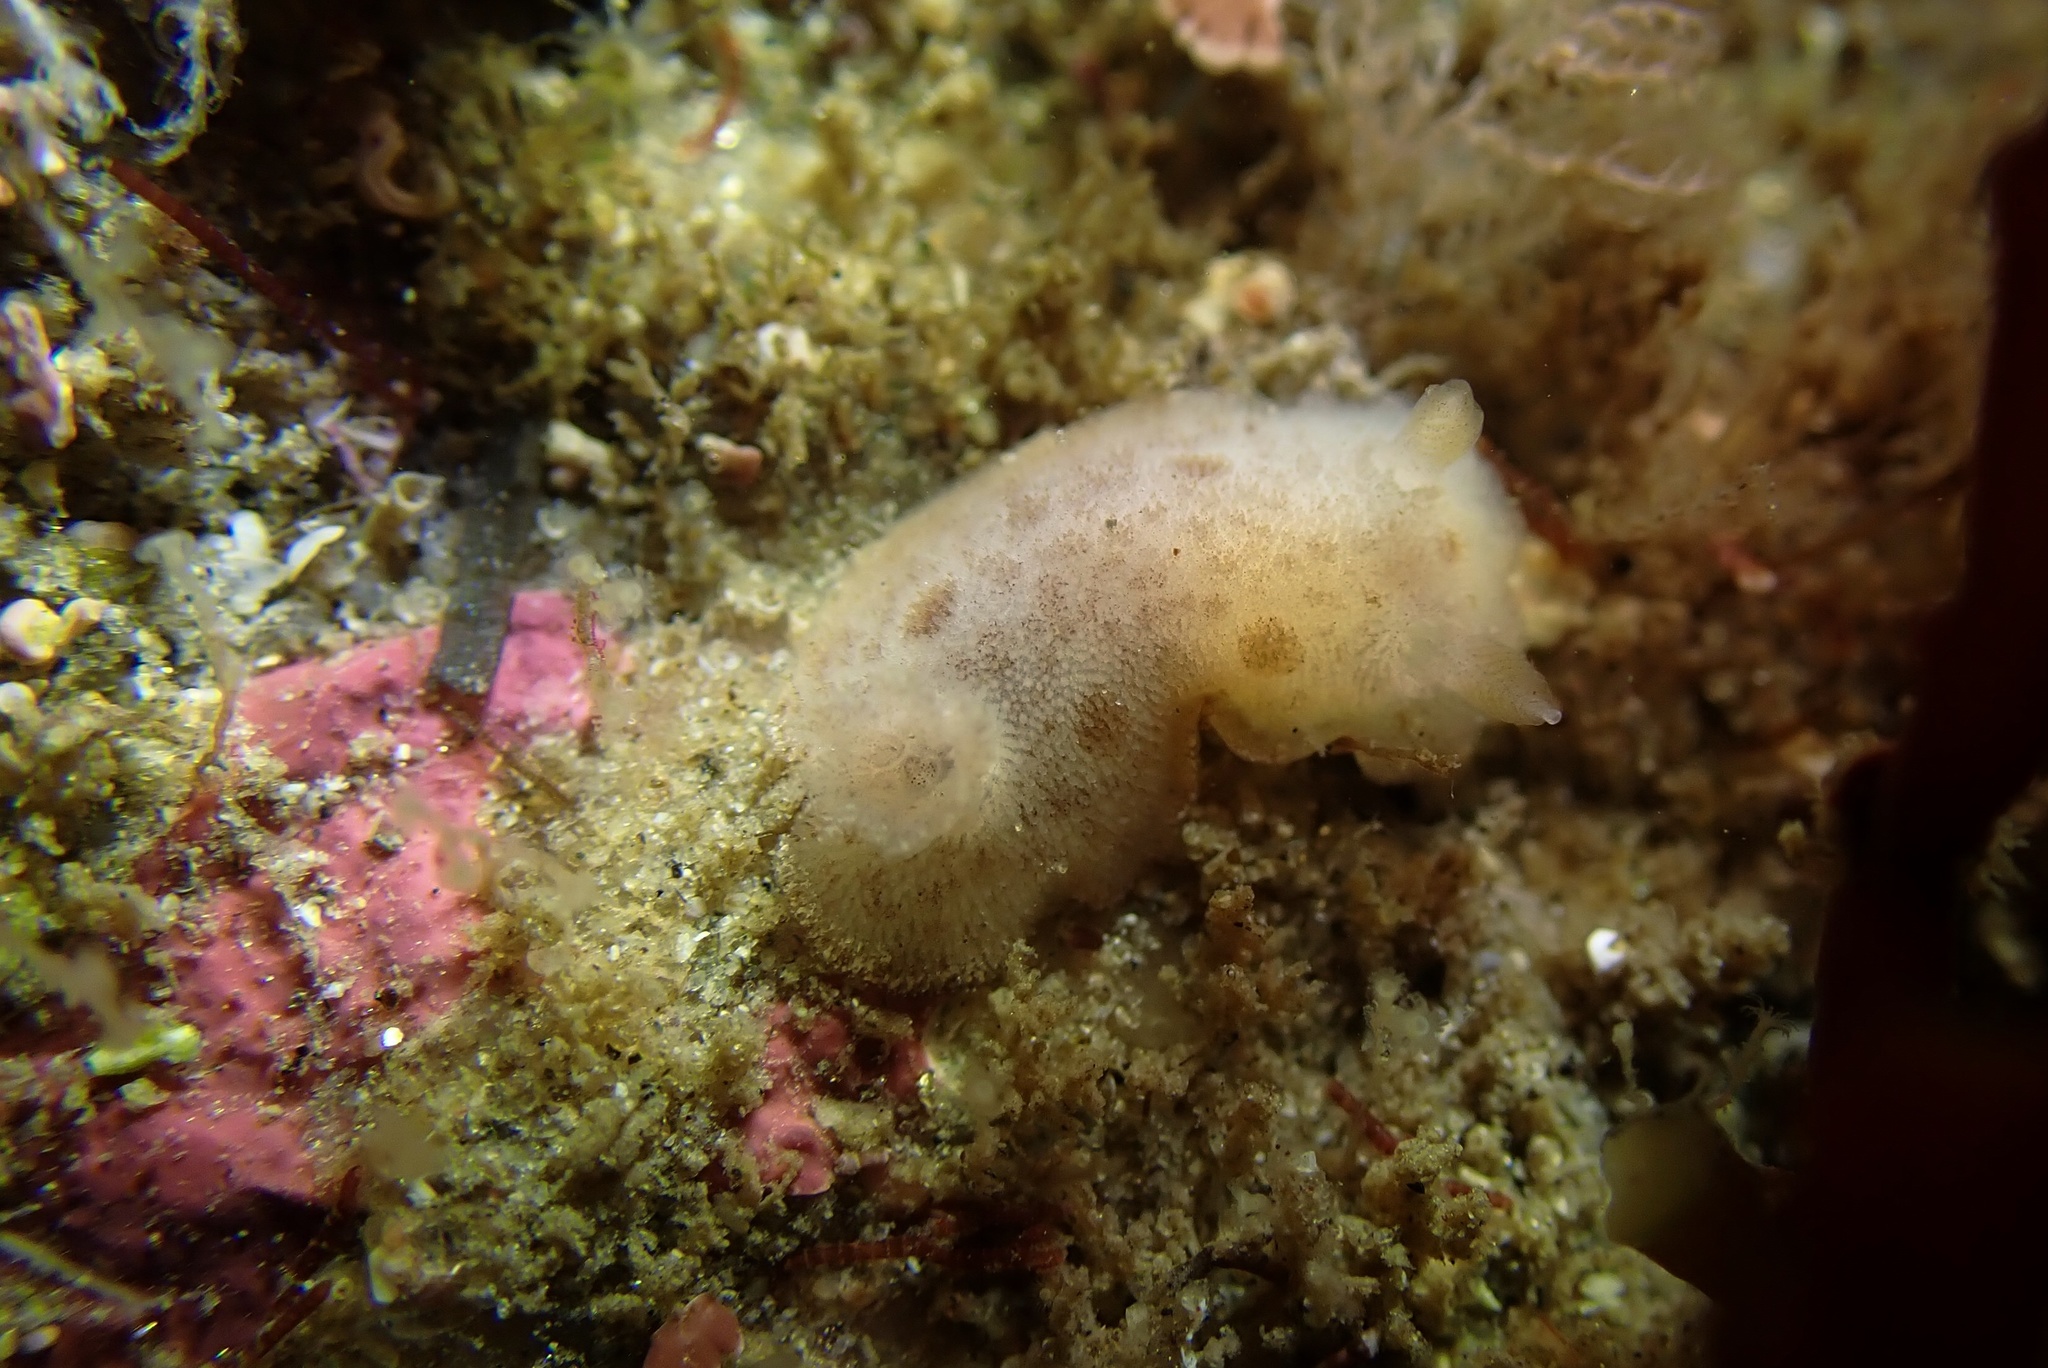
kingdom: Animalia
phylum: Mollusca
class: Gastropoda
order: Nudibranchia
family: Discodorididae
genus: Diaulula
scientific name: Diaulula sandiegensis
